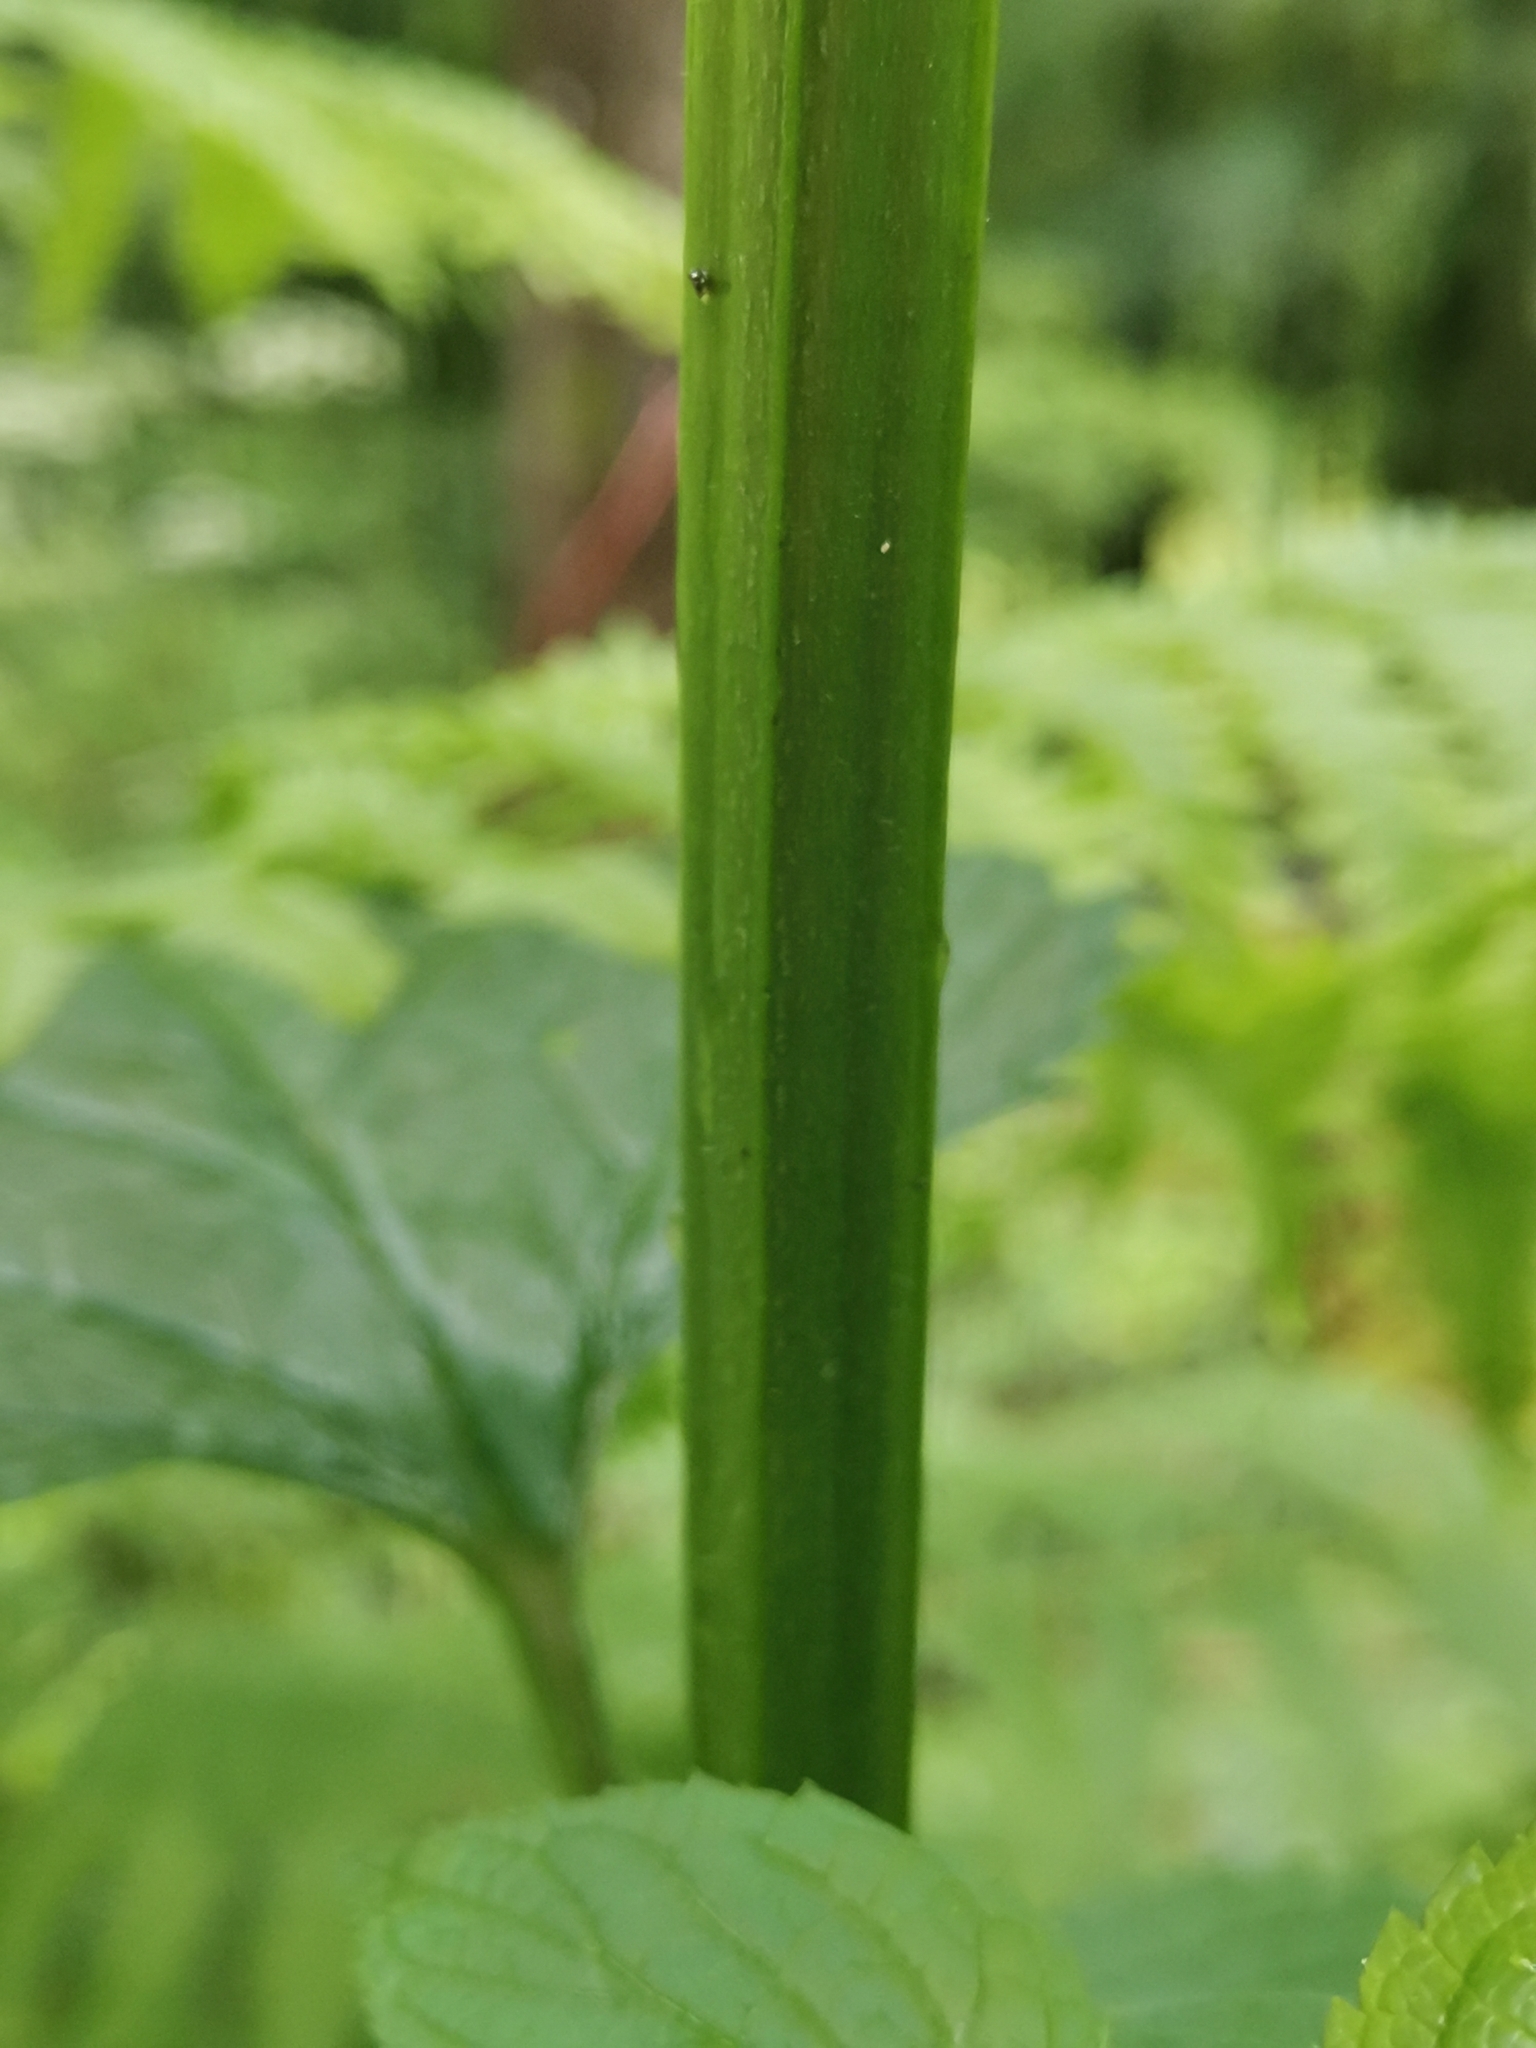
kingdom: Plantae
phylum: Tracheophyta
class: Magnoliopsida
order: Lamiales
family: Scrophulariaceae
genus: Scrophularia
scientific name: Scrophularia nodosa
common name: Common figwort
